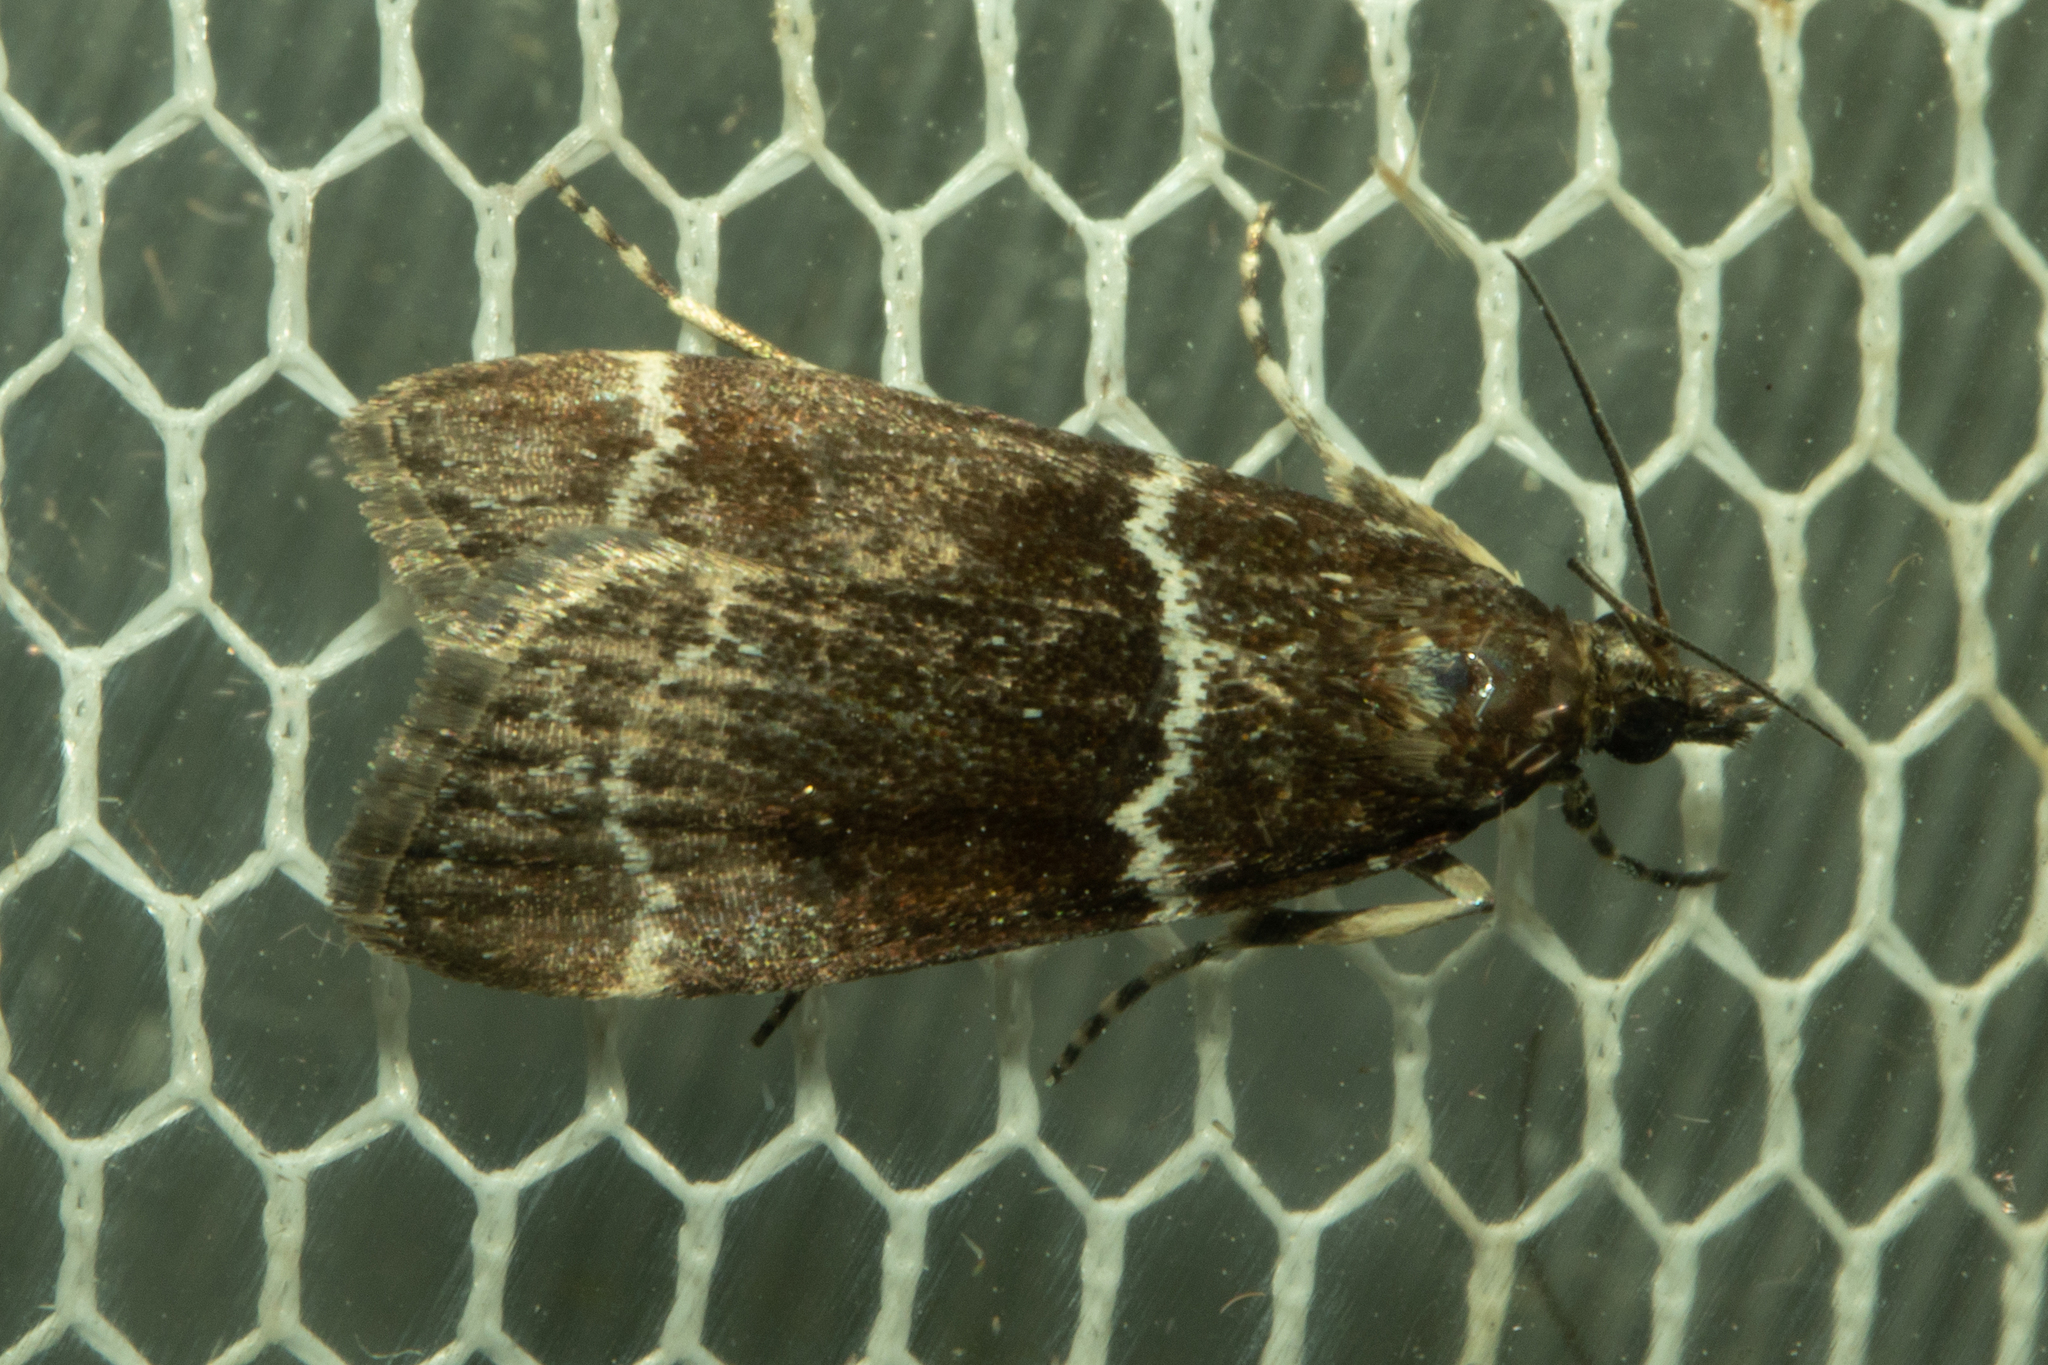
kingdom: Animalia
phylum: Arthropoda
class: Insecta
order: Lepidoptera
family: Crambidae
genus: Eudonia
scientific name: Eudonia leucogramma
